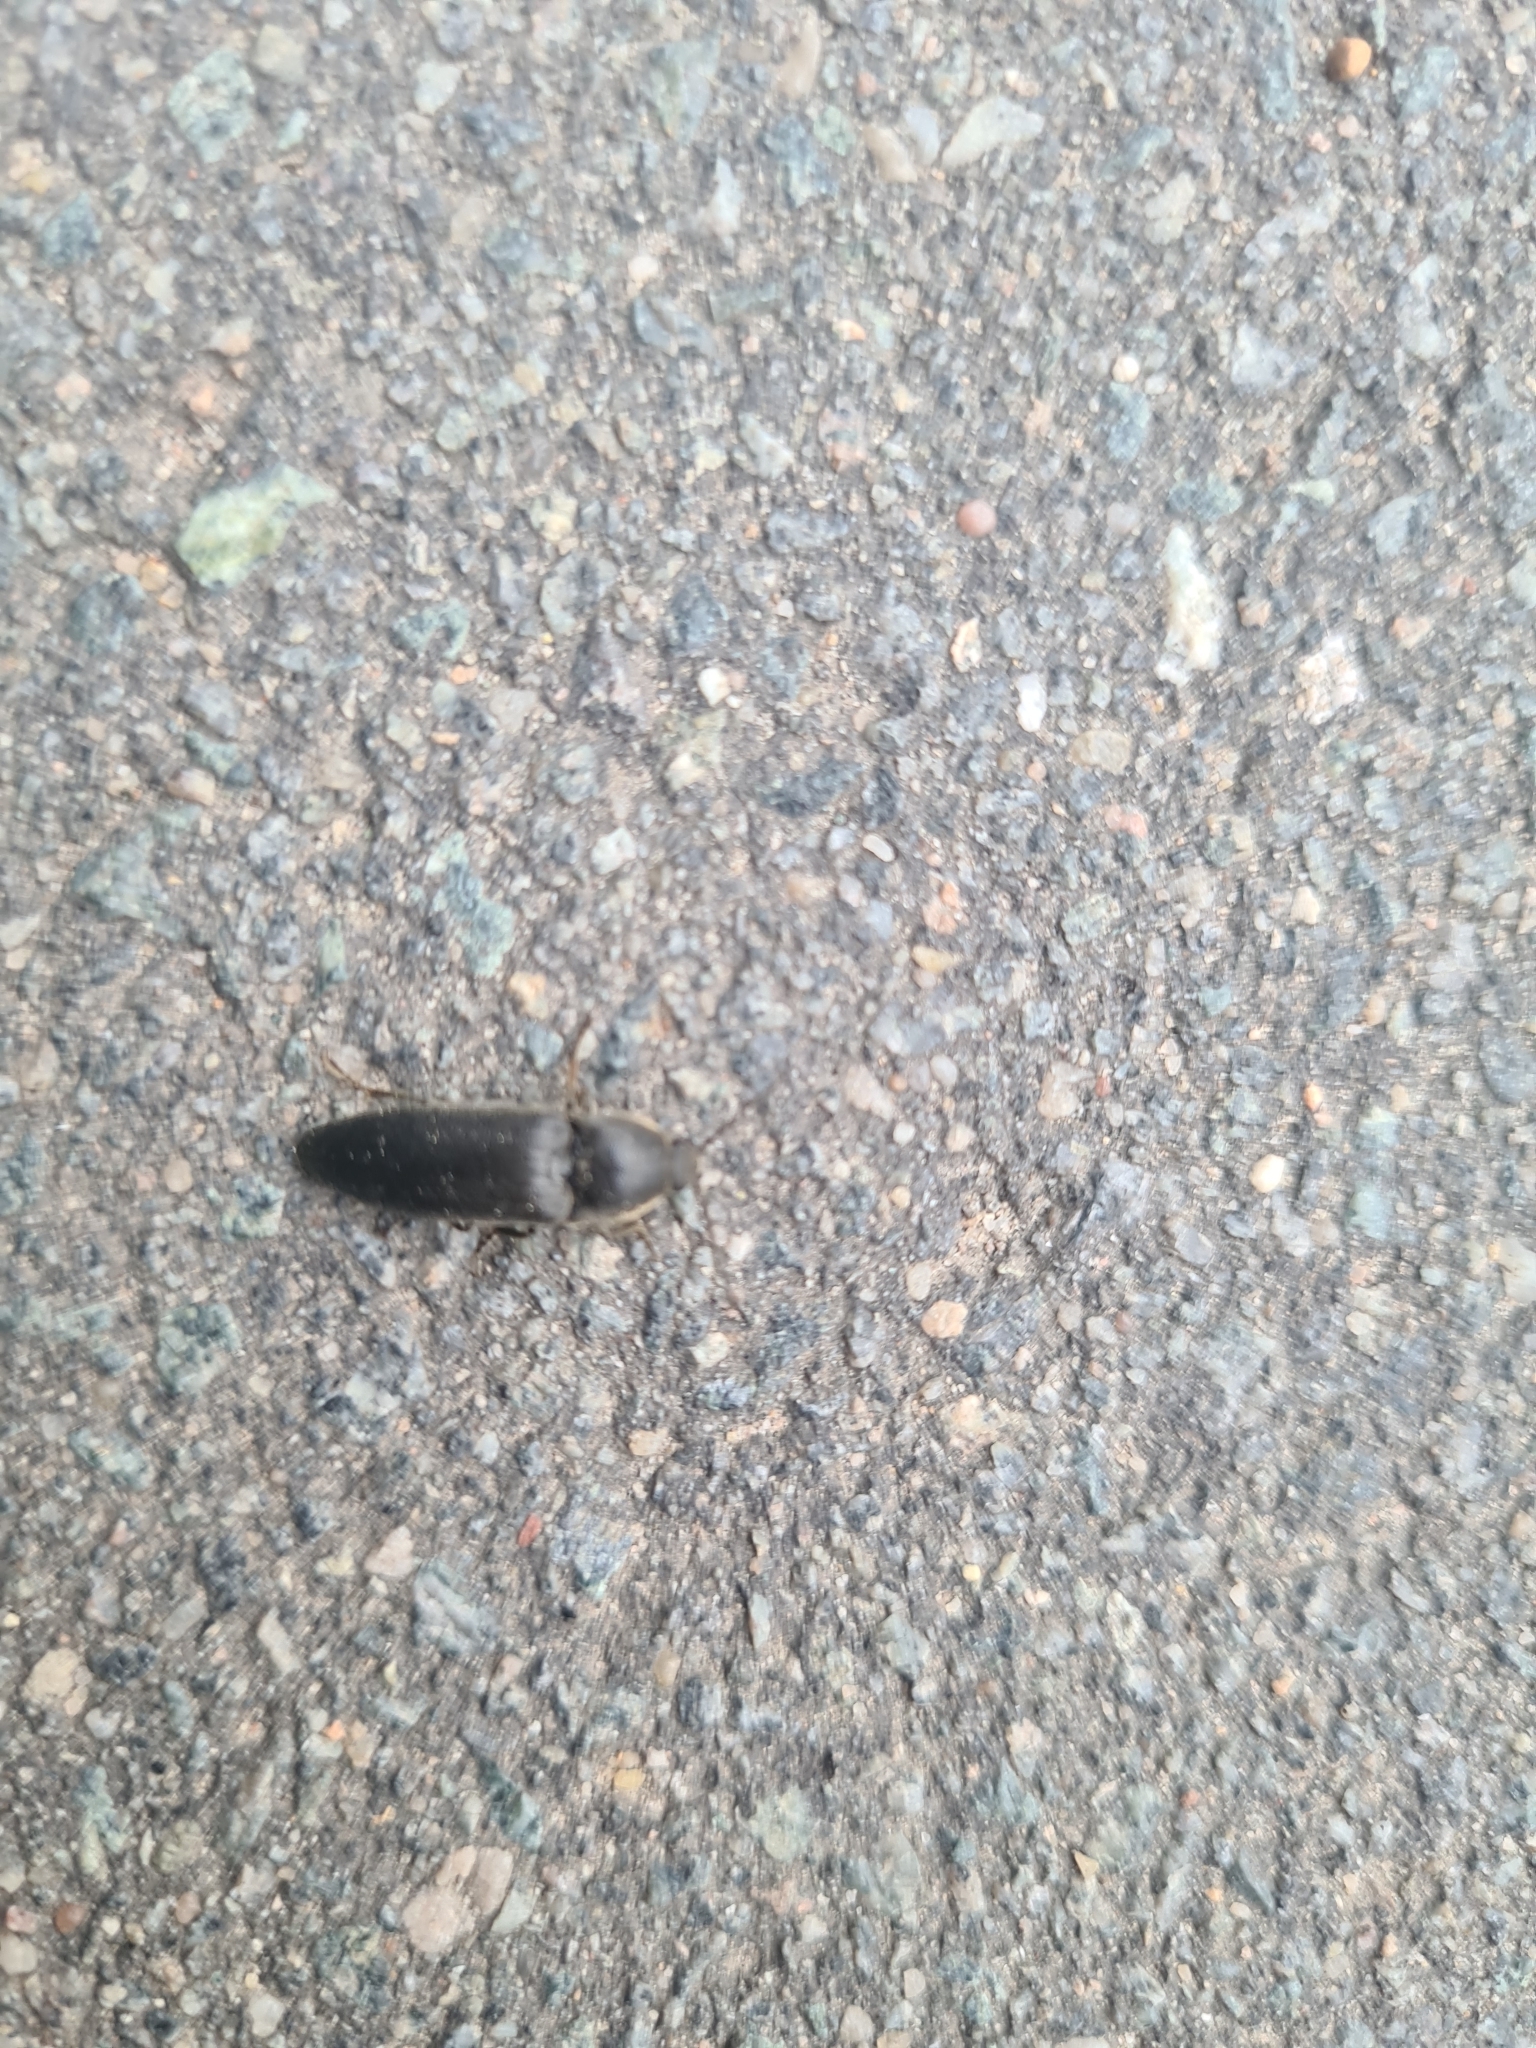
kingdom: Animalia
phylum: Arthropoda
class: Insecta
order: Coleoptera
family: Elateridae
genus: Melanotus
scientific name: Melanotus punctolineatus
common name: Sandwich click beetle
